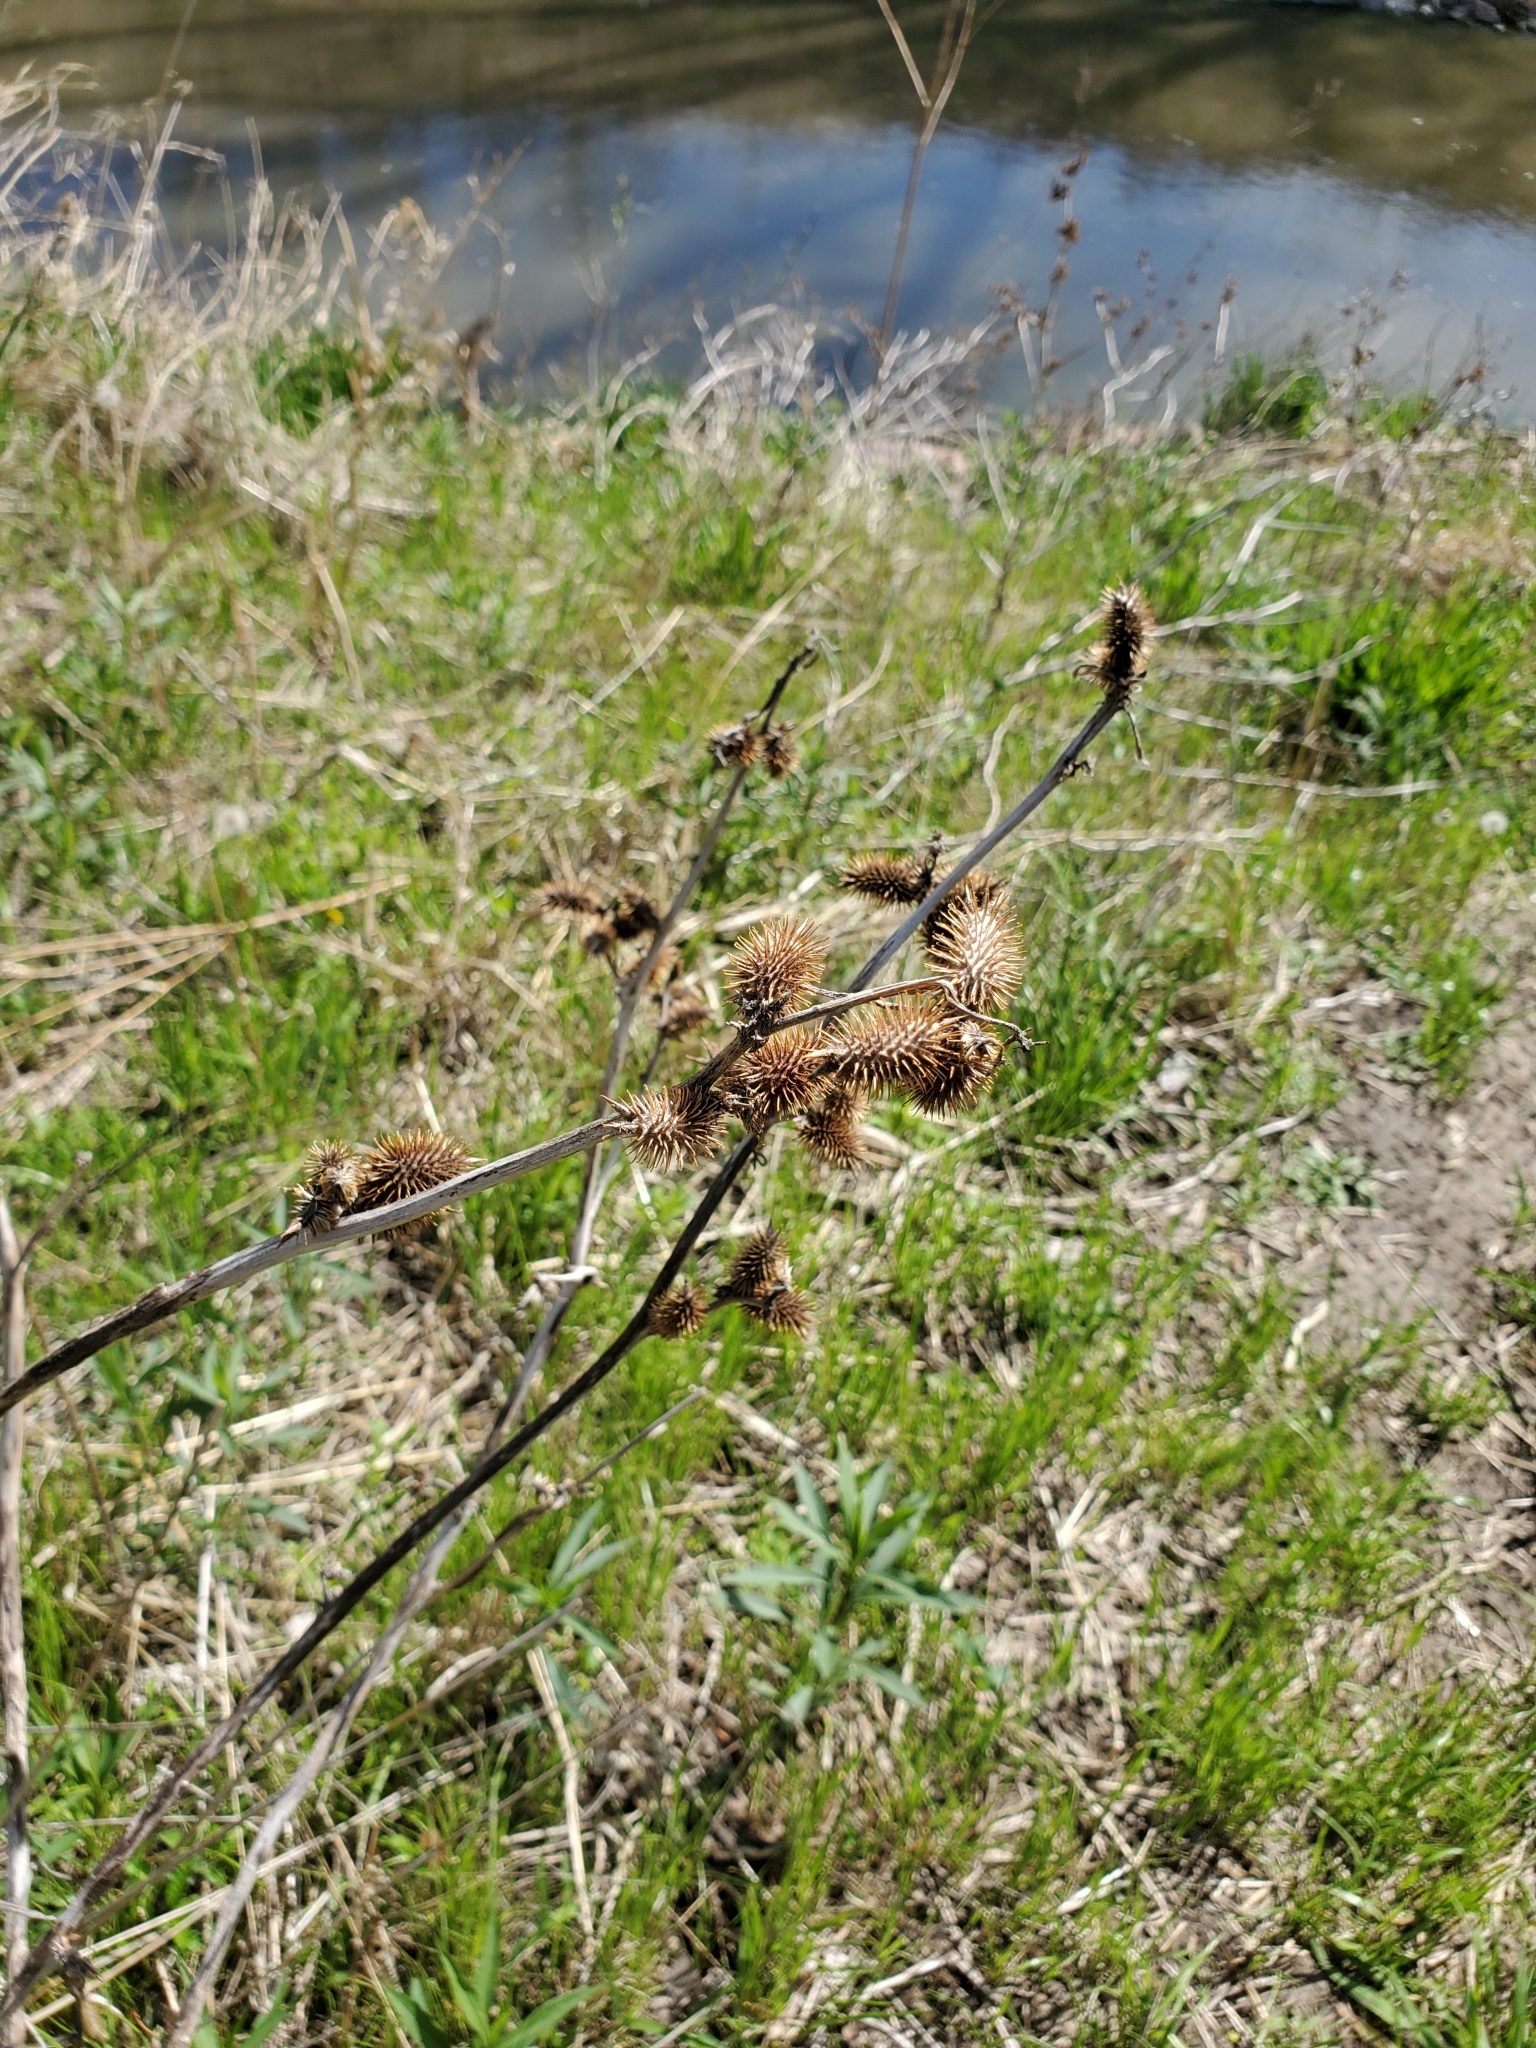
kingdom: Plantae
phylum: Tracheophyta
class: Magnoliopsida
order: Fabales
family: Fabaceae
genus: Glycyrrhiza
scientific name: Glycyrrhiza lepidota
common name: American liquorice
